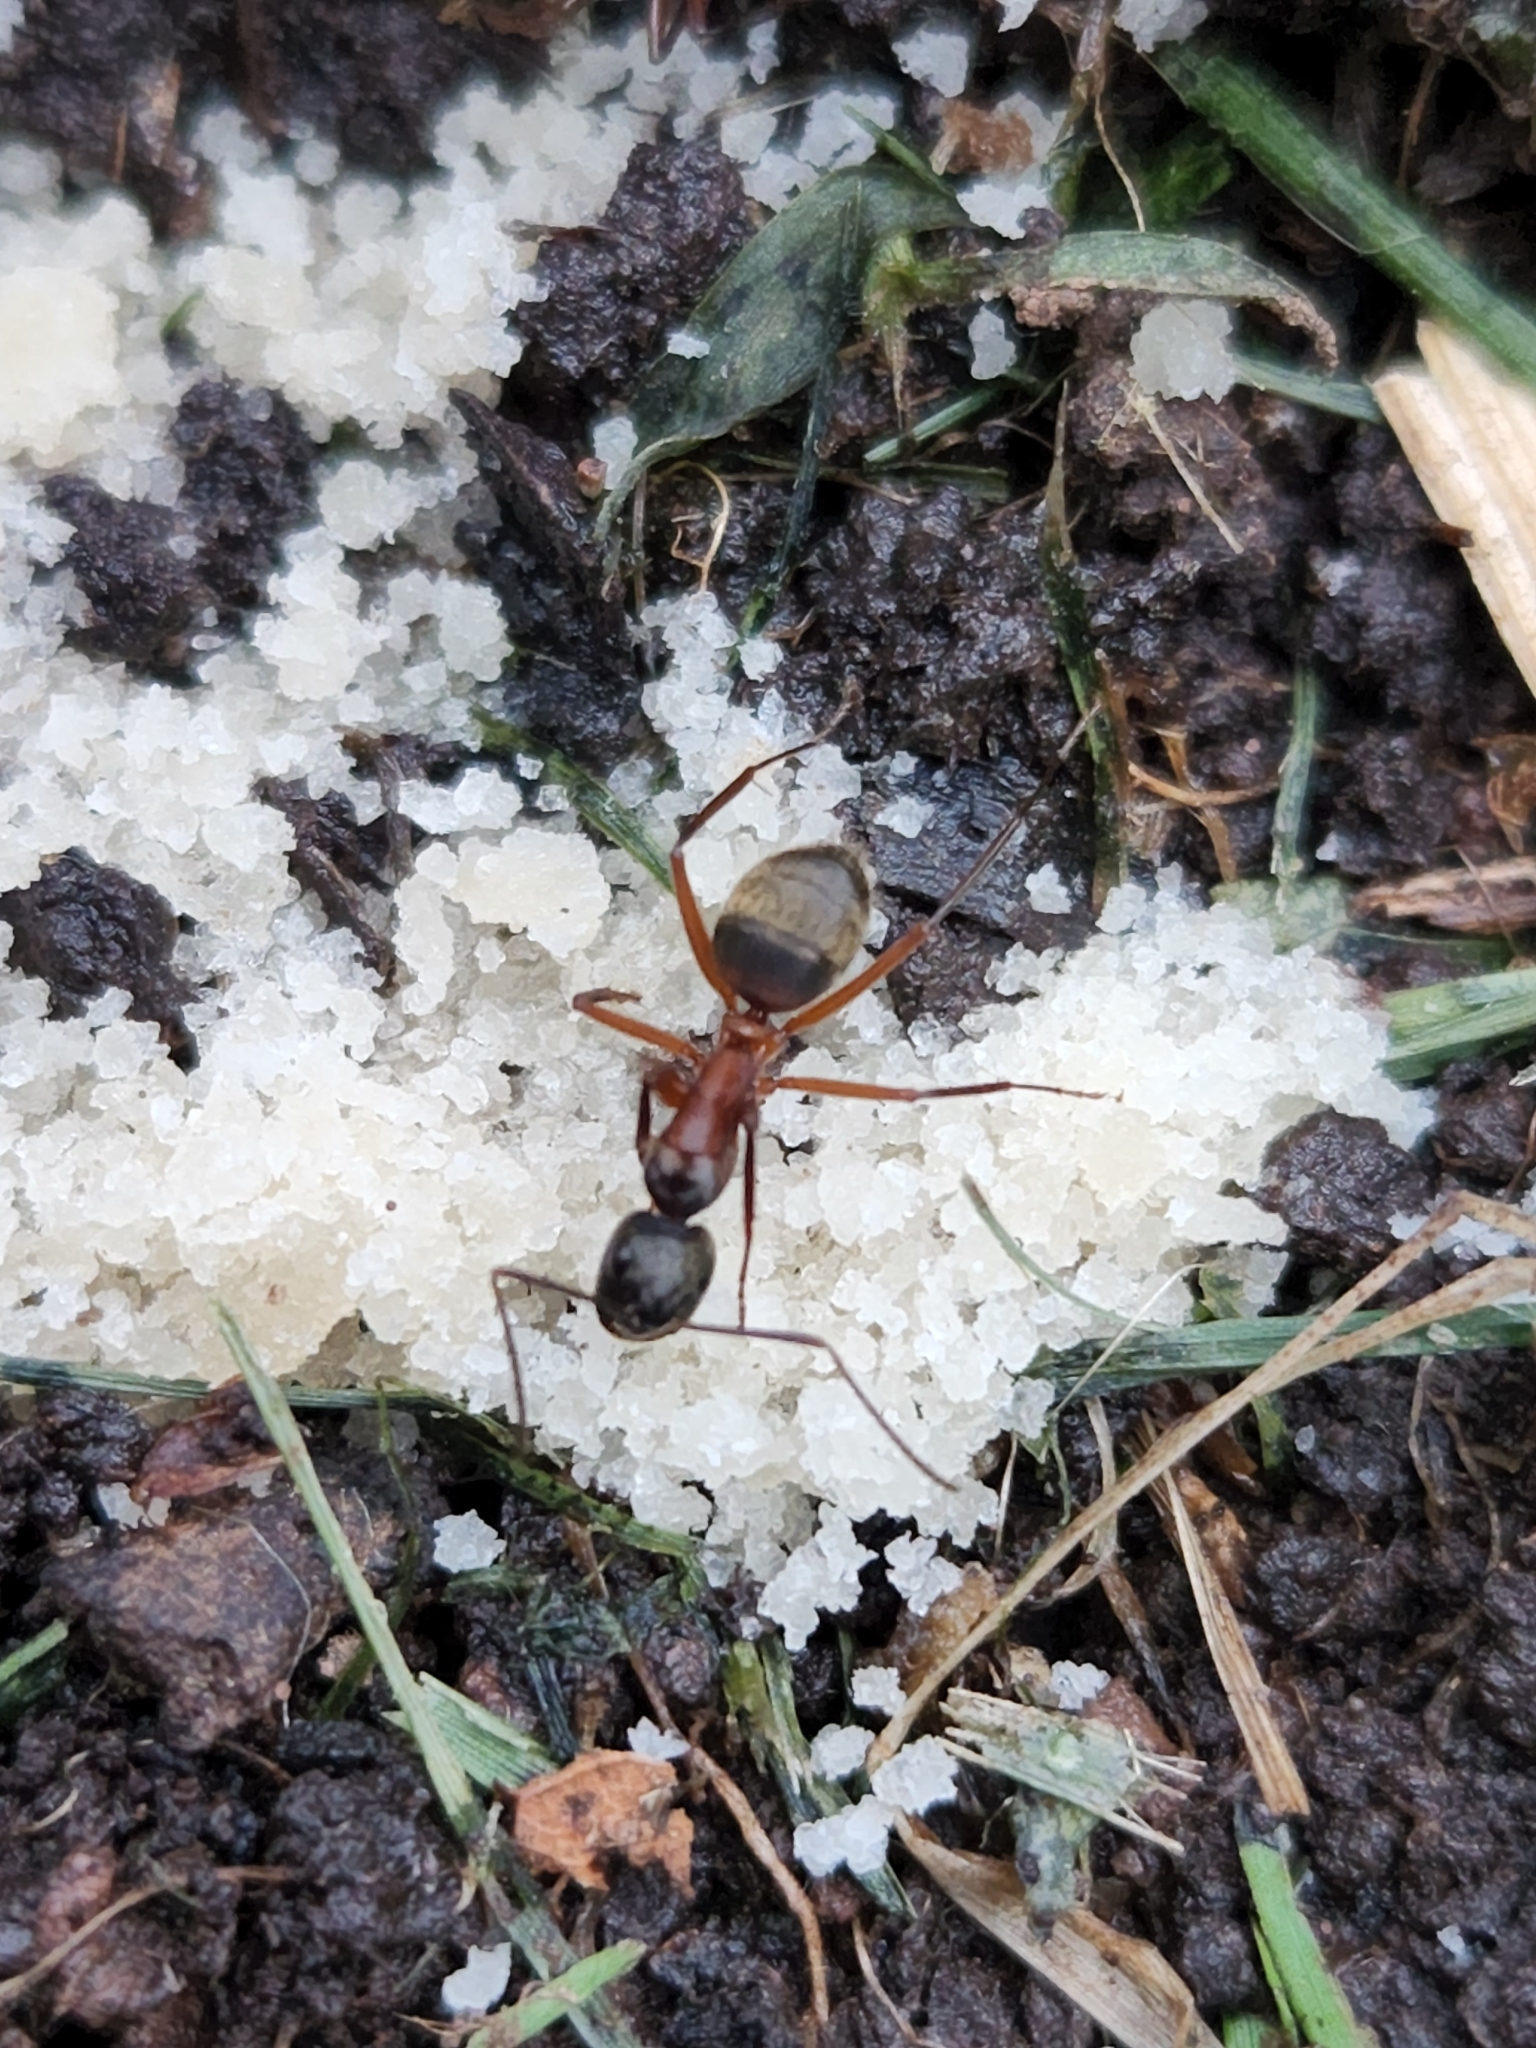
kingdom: Animalia
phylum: Arthropoda
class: Insecta
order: Hymenoptera
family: Formicidae
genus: Camponotus
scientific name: Camponotus chromaiodes
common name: Red carpenter ant
